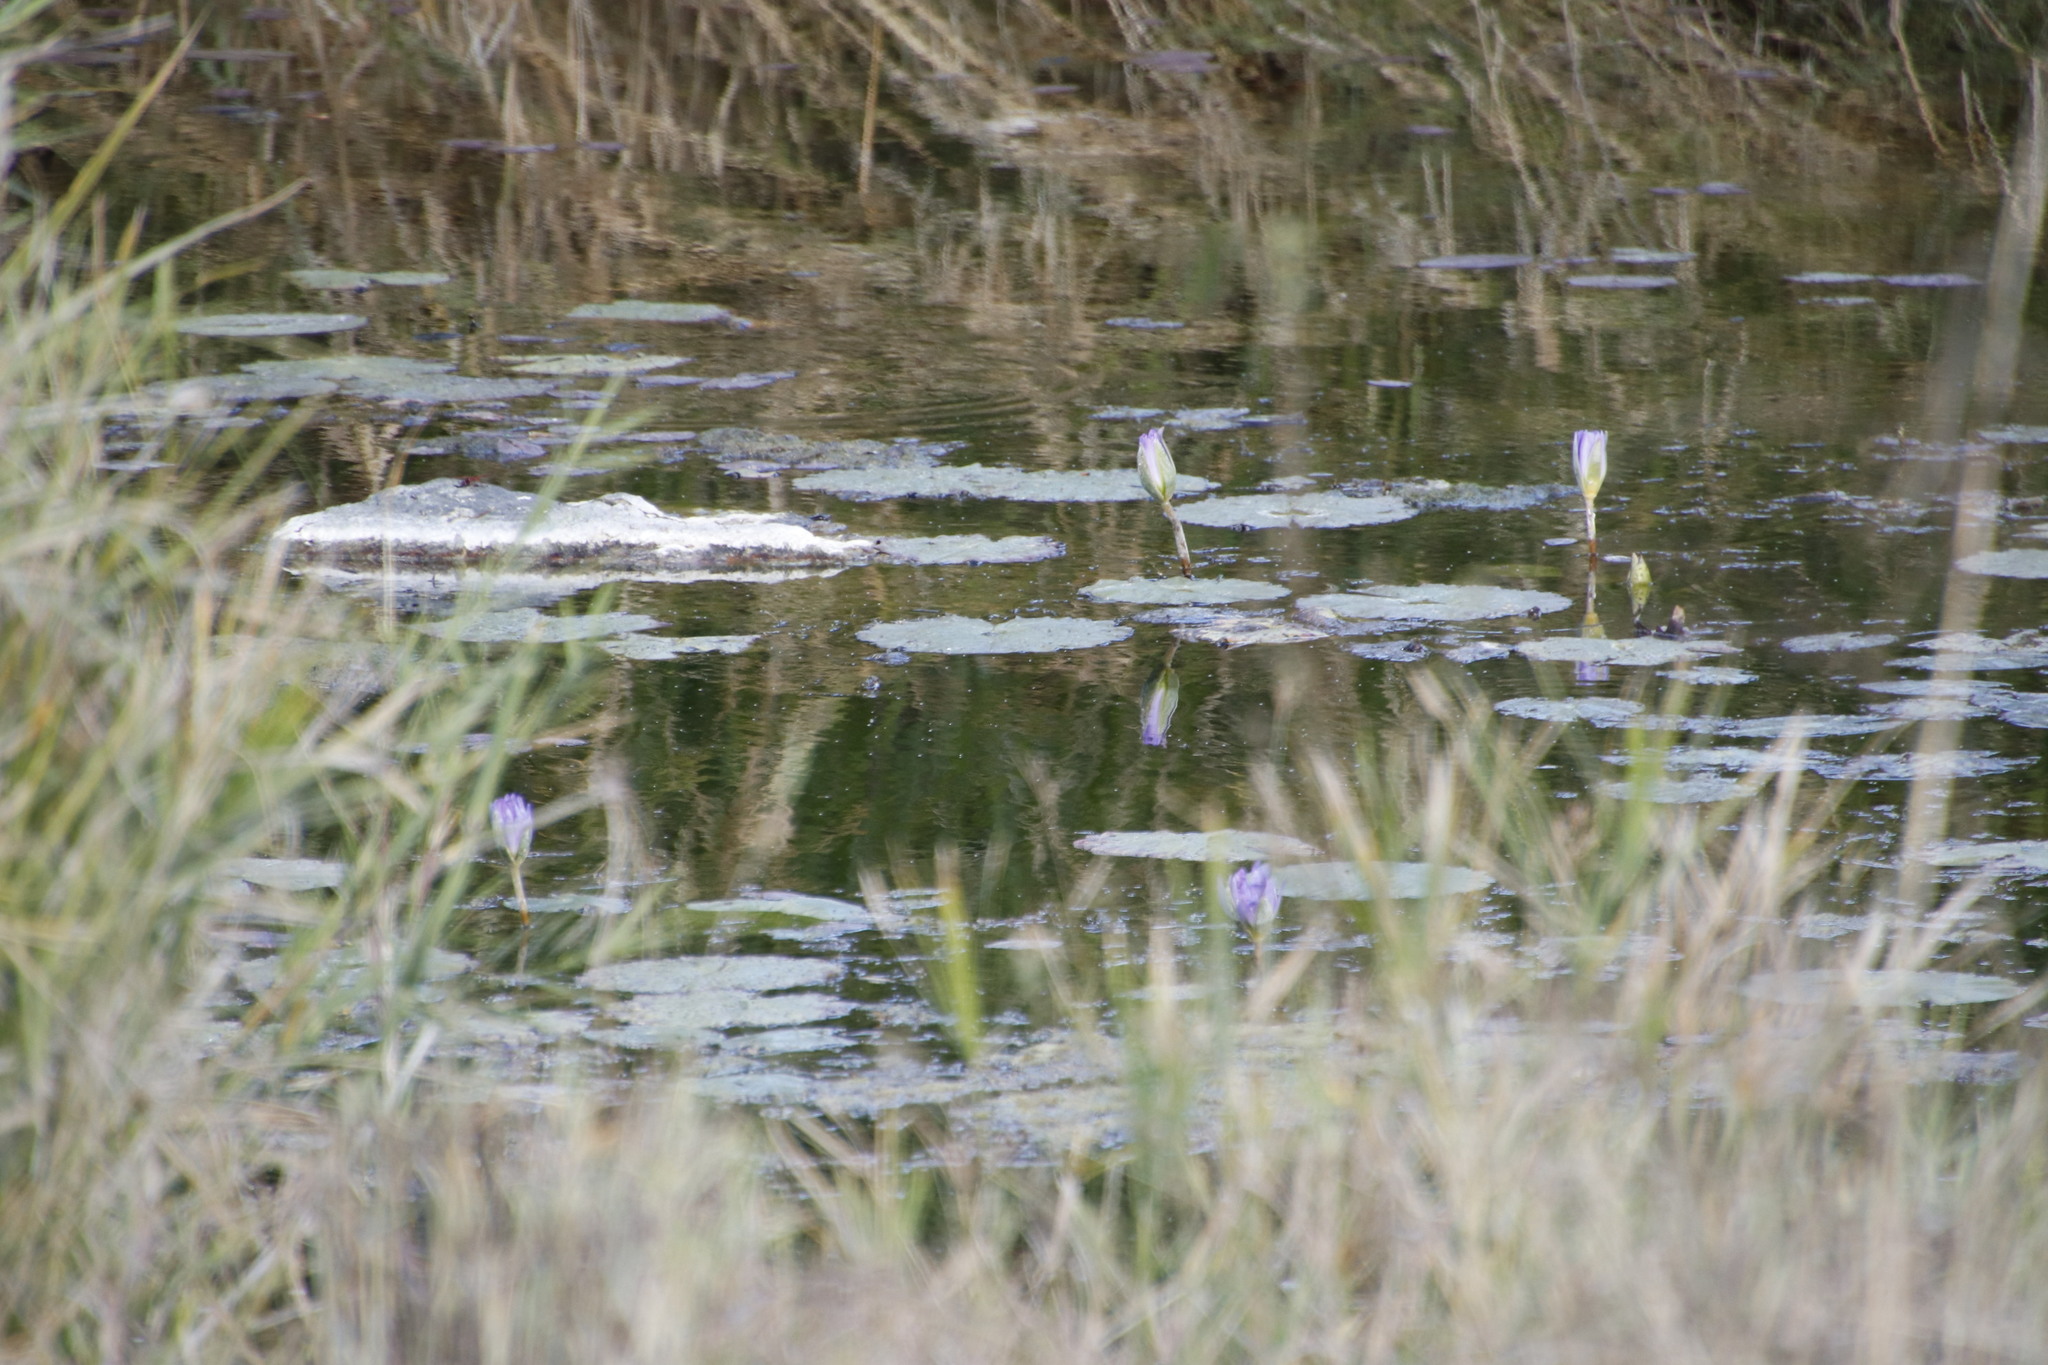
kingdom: Plantae
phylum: Tracheophyta
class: Magnoliopsida
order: Nymphaeales
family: Nymphaeaceae
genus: Nymphaea
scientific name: Nymphaea nouchali
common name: Blue lotus
